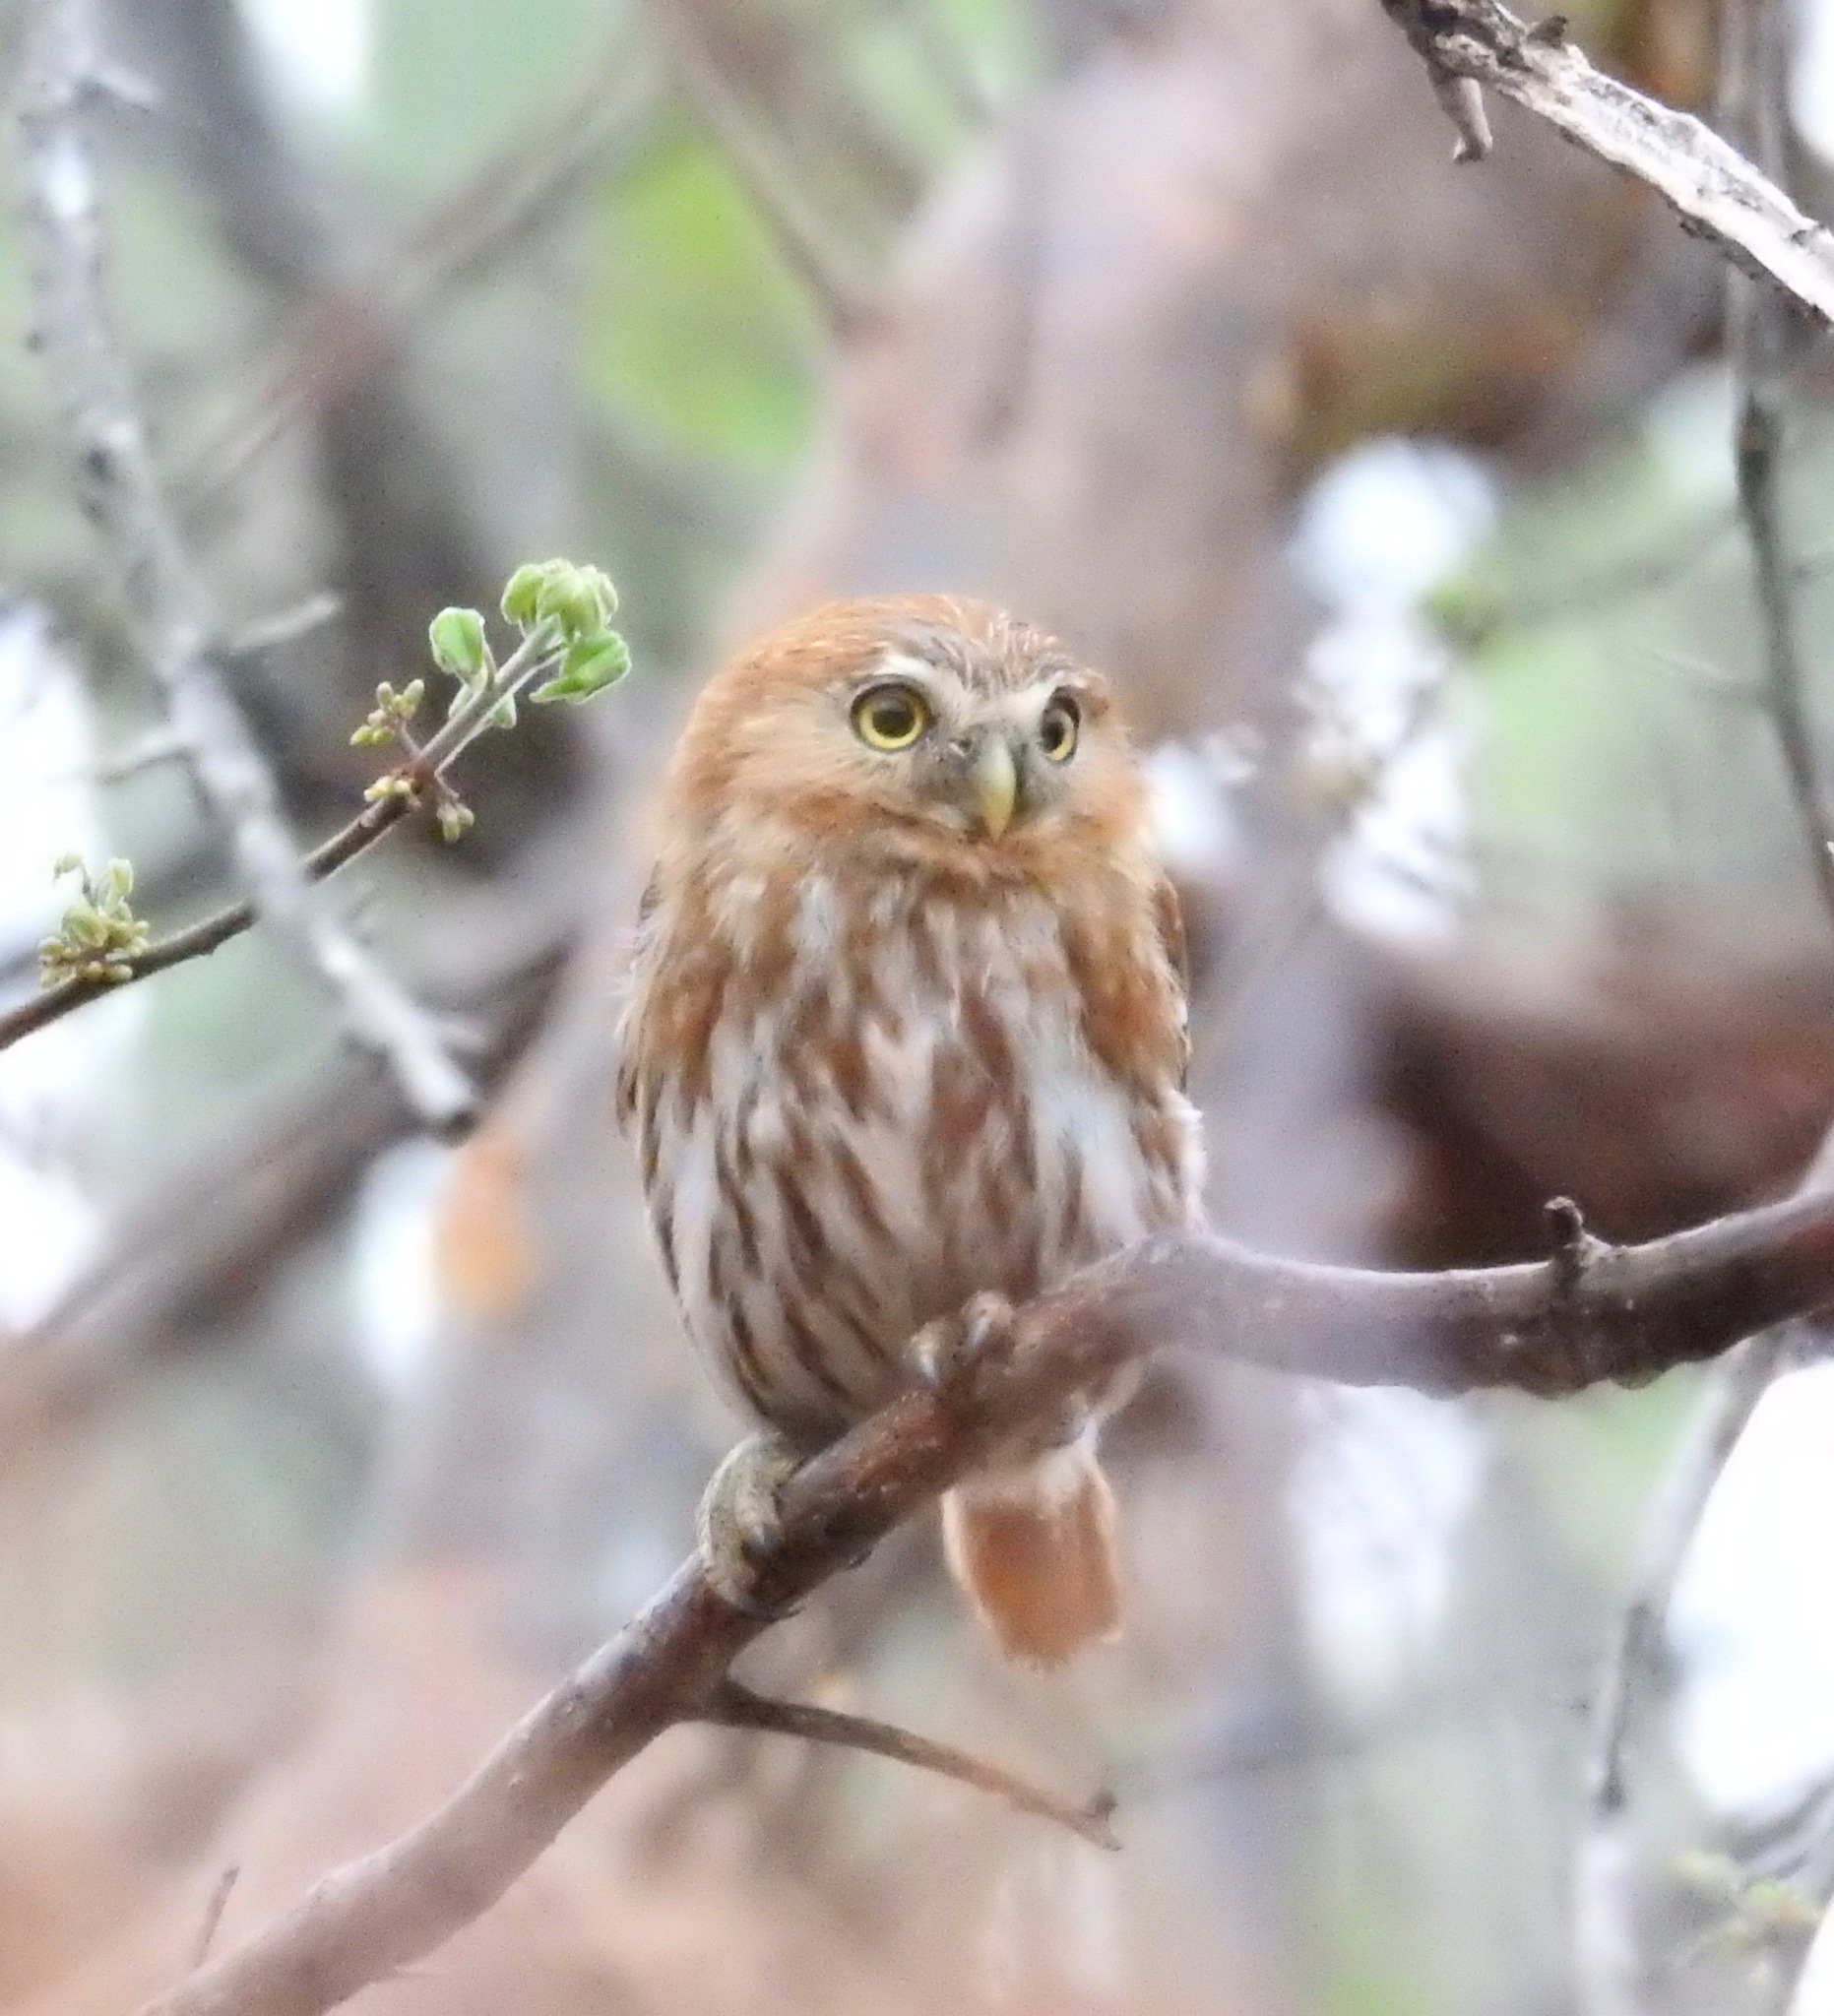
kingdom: Animalia
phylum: Chordata
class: Aves
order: Strigiformes
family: Strigidae
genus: Glaucidium
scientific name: Glaucidium brasilianum
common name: Ferruginous pygmy-owl
